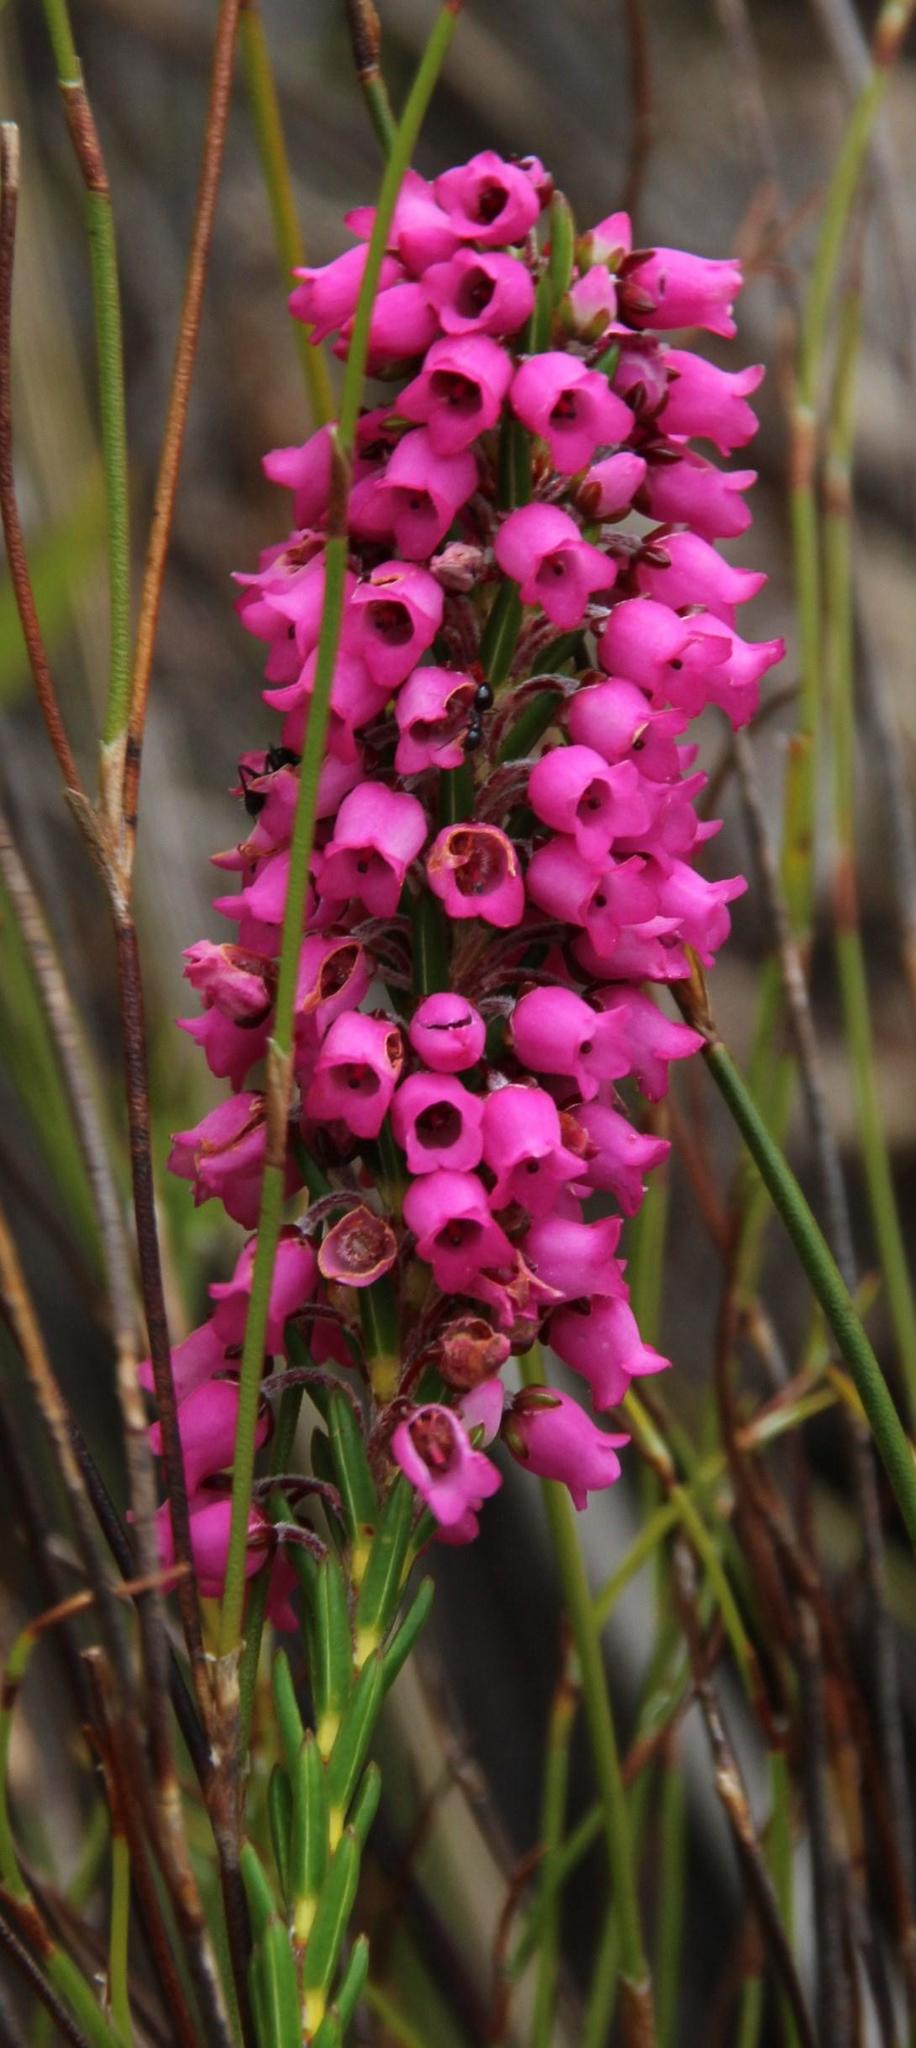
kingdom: Plantae
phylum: Tracheophyta
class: Magnoliopsida
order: Ericales
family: Ericaceae
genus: Erica
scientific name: Erica pulchella
